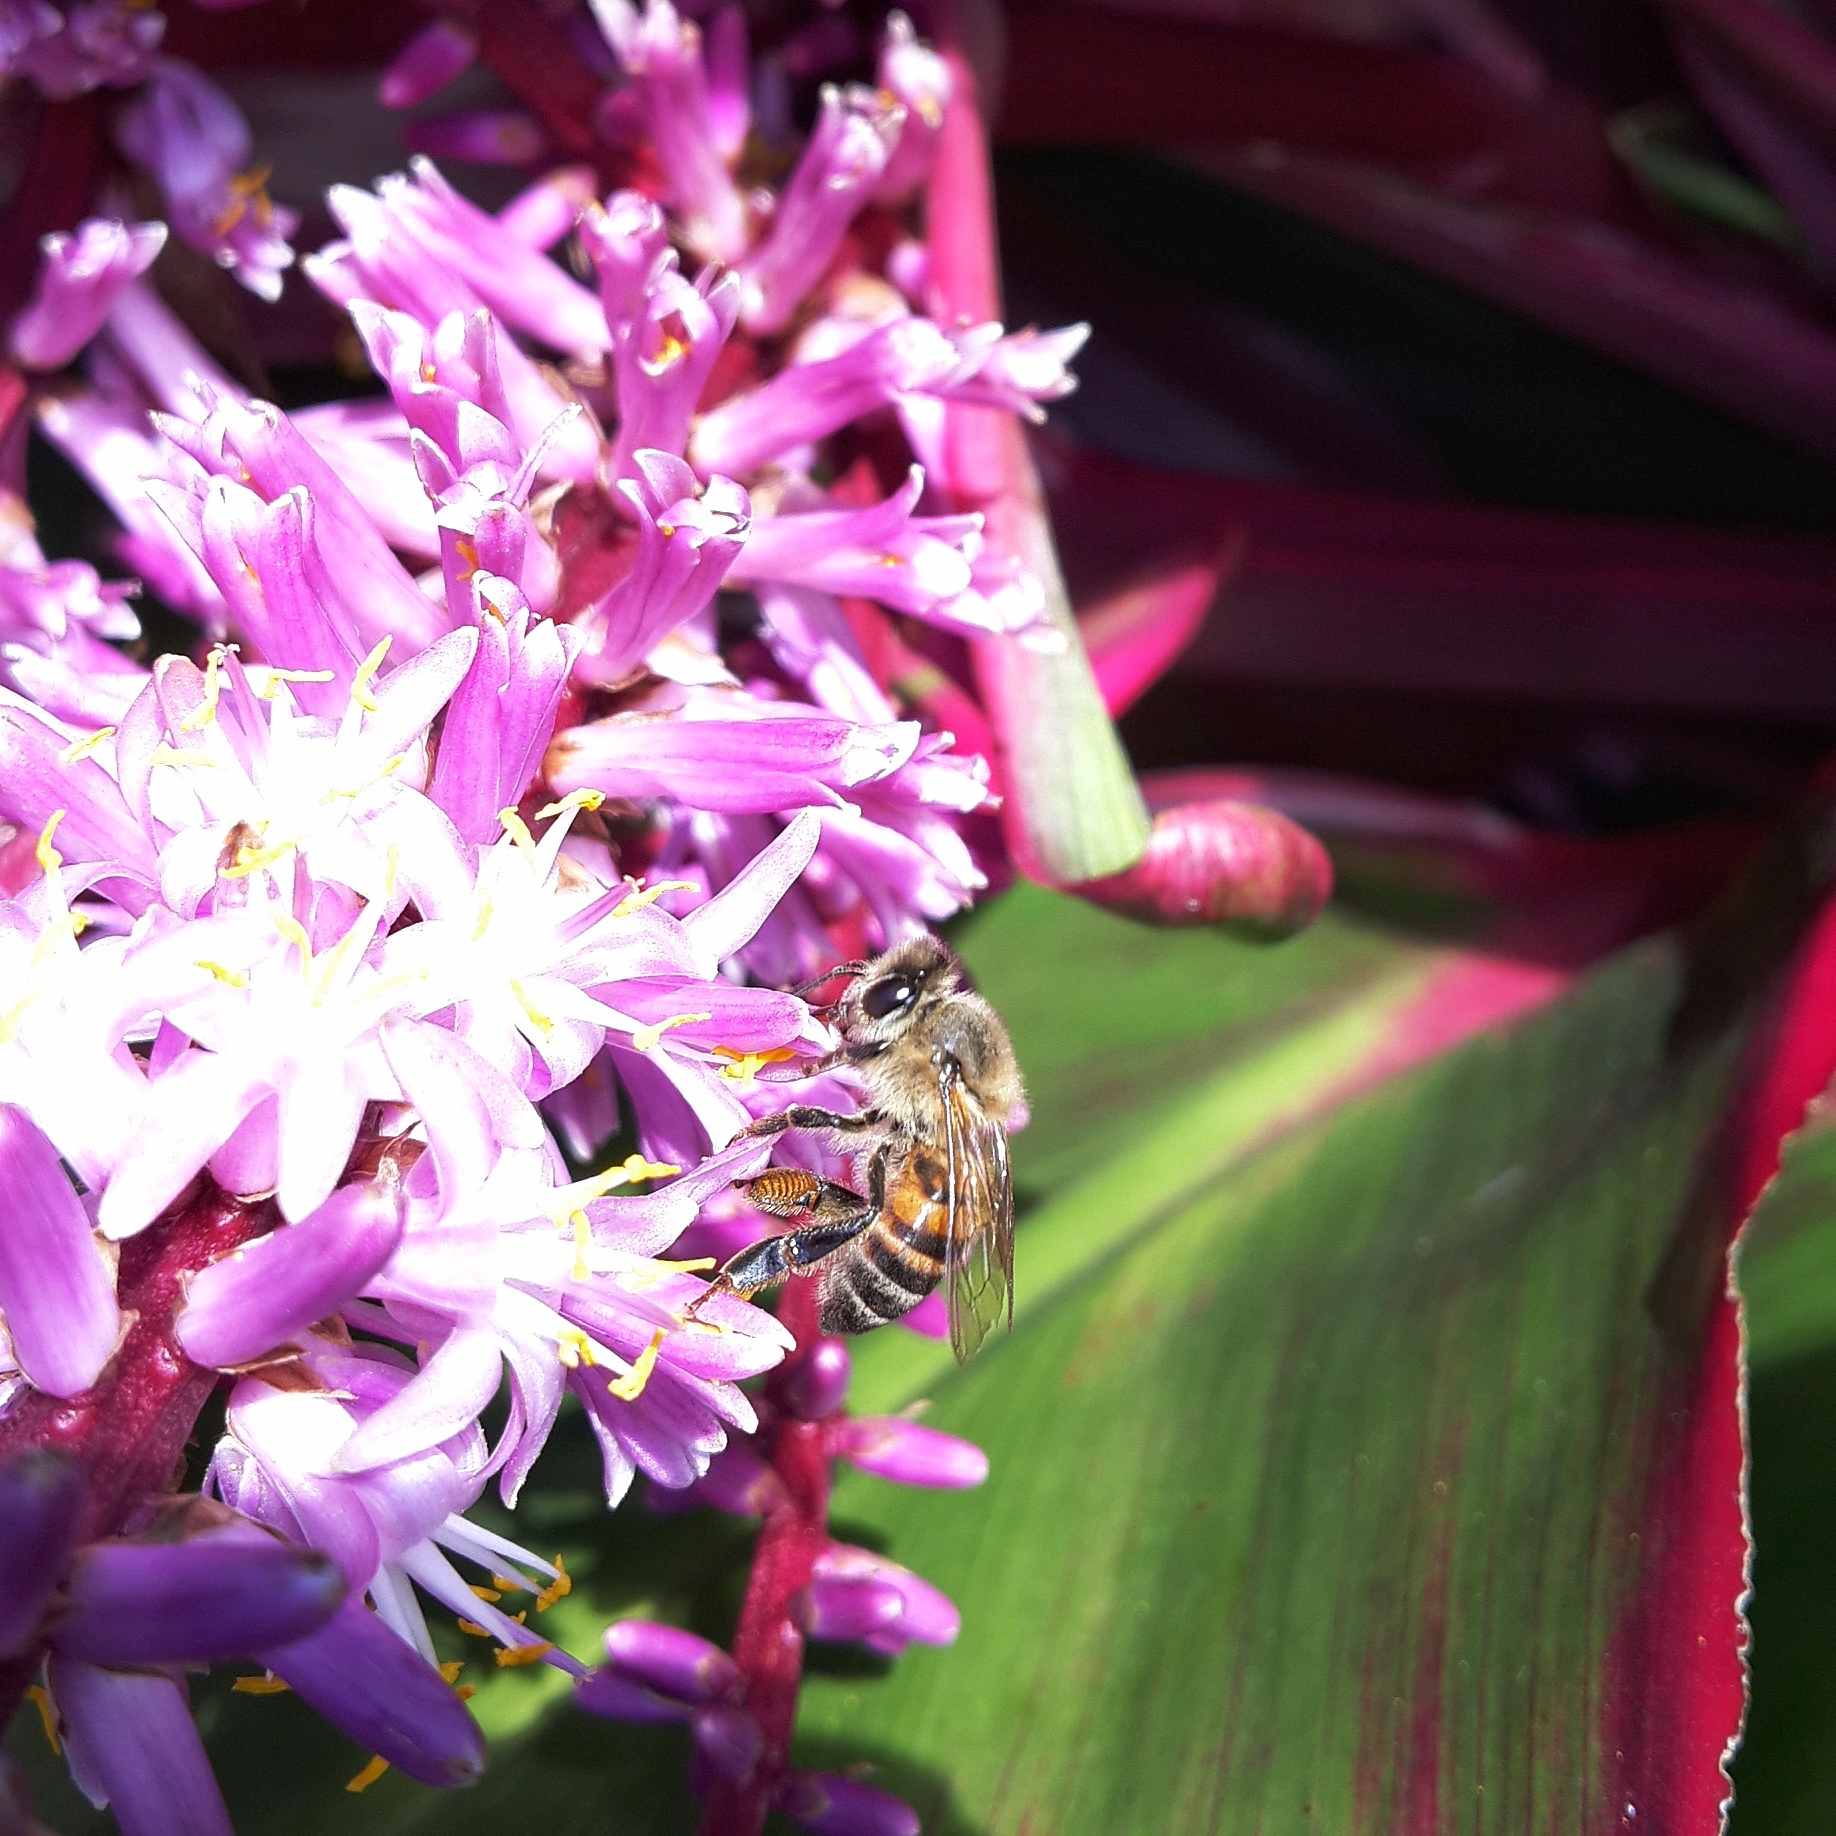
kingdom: Animalia
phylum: Arthropoda
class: Insecta
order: Hymenoptera
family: Apidae
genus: Apis
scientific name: Apis mellifera
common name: Honey bee
